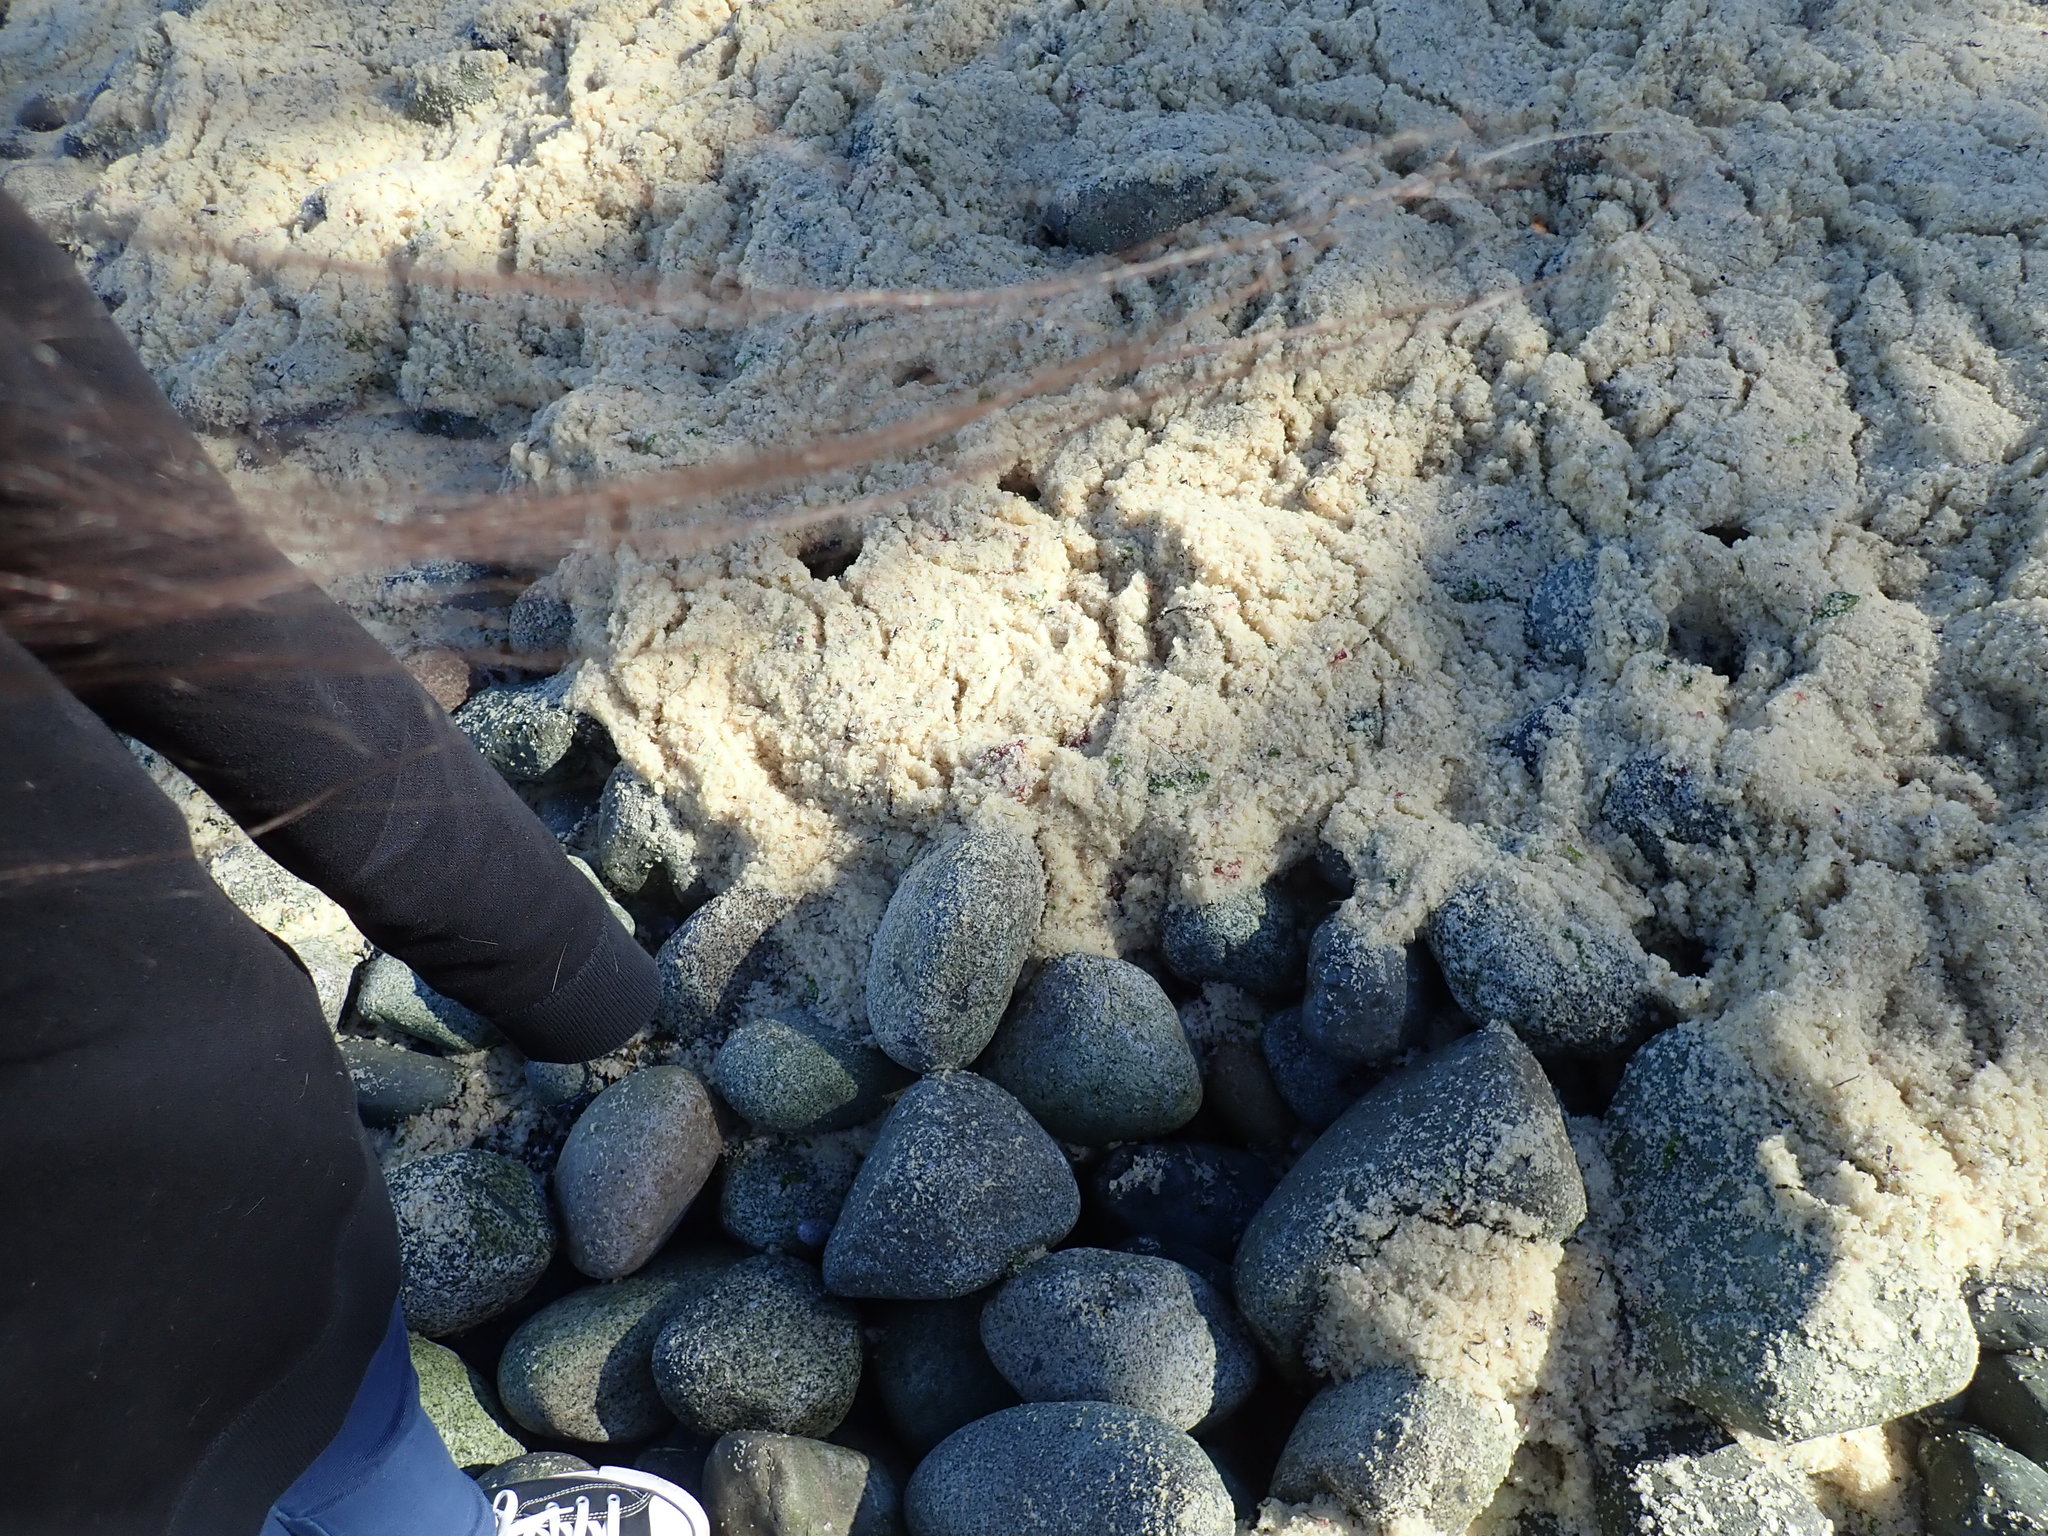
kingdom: Animalia
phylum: Chordata
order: Clupeiformes
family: Clupeidae
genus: Clupea
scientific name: Clupea pallasii
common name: Pacific herring
